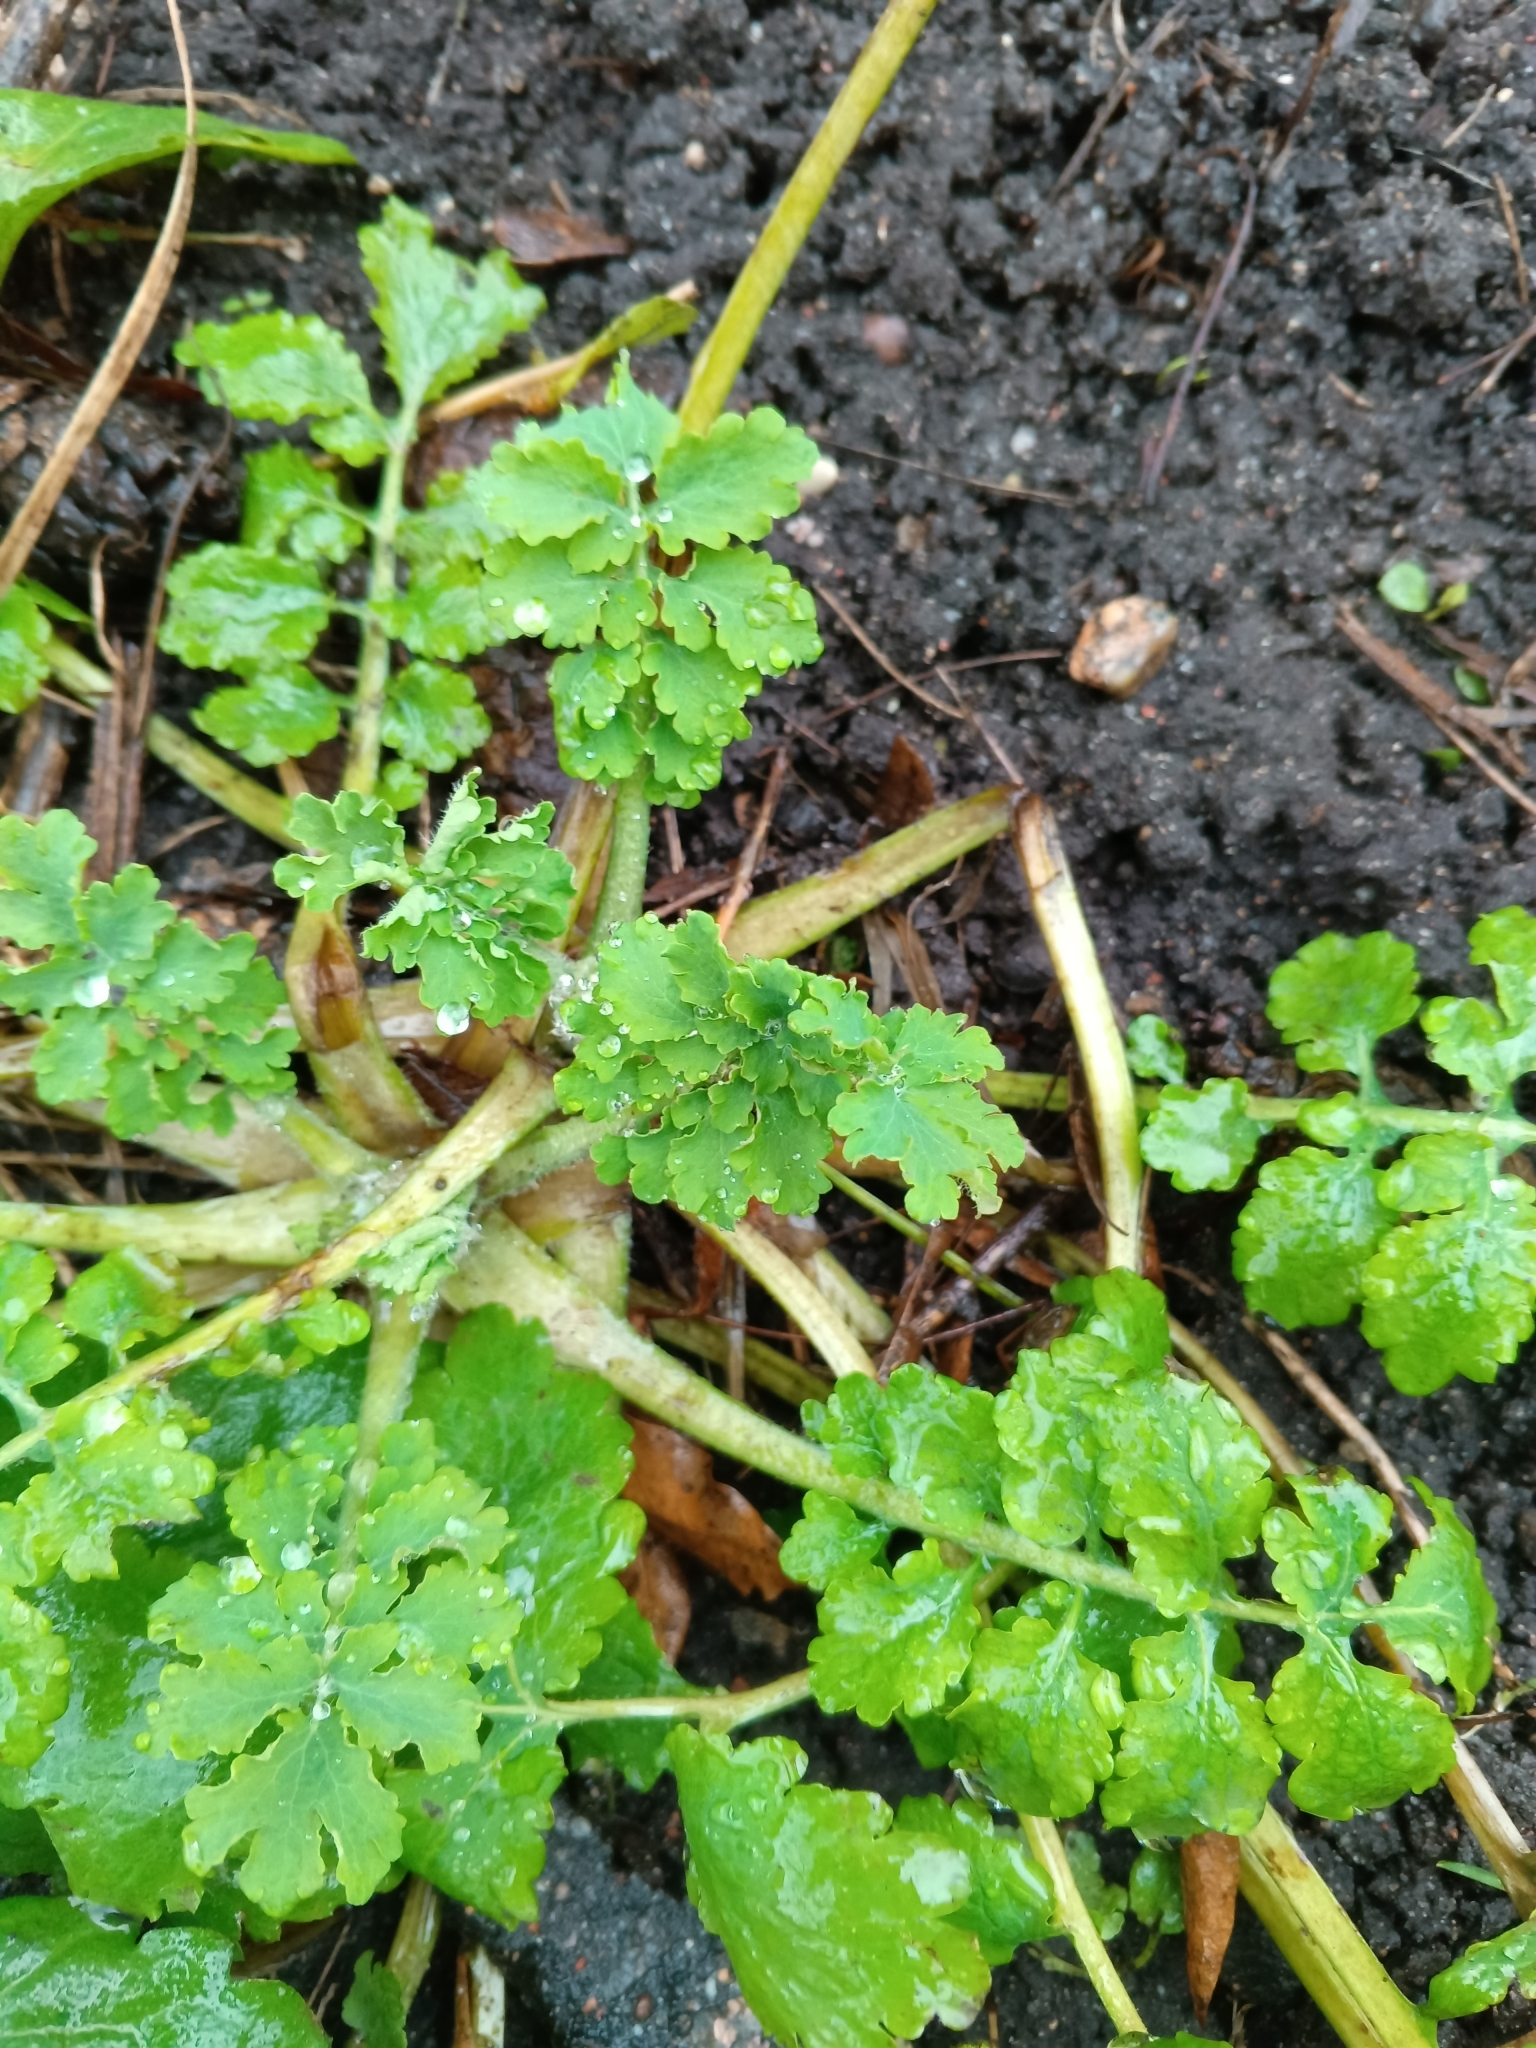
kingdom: Plantae
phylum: Tracheophyta
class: Magnoliopsida
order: Ranunculales
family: Papaveraceae
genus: Chelidonium
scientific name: Chelidonium majus
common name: Greater celandine
